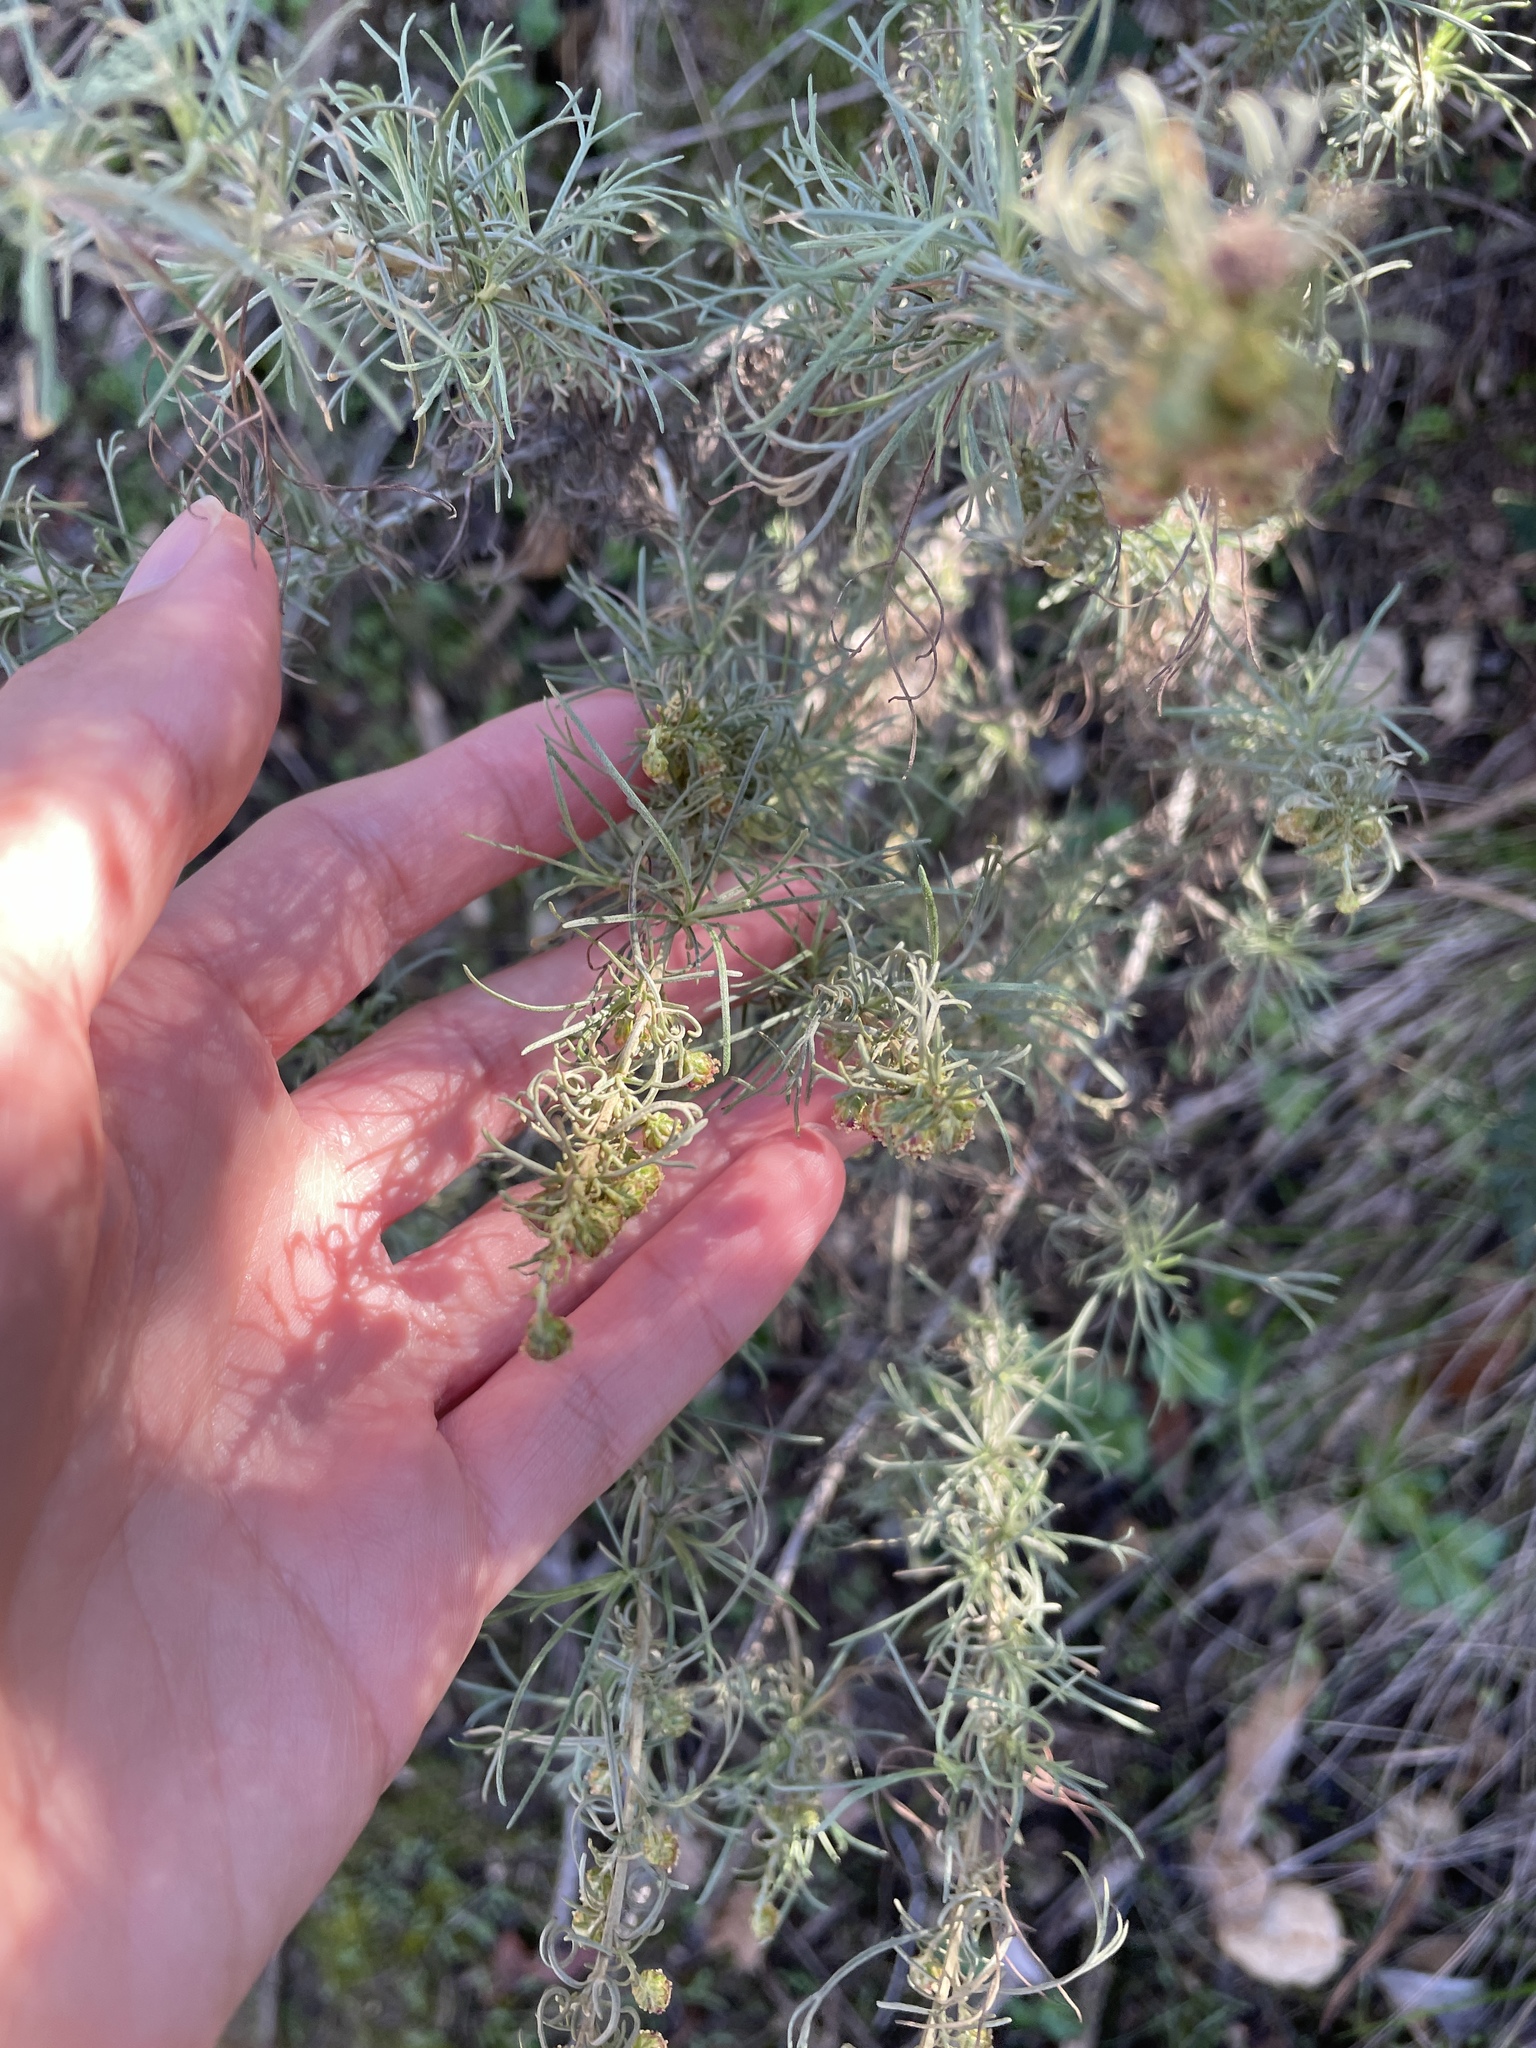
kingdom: Plantae
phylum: Tracheophyta
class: Magnoliopsida
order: Asterales
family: Asteraceae
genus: Artemisia
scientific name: Artemisia californica
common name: California sagebrush
